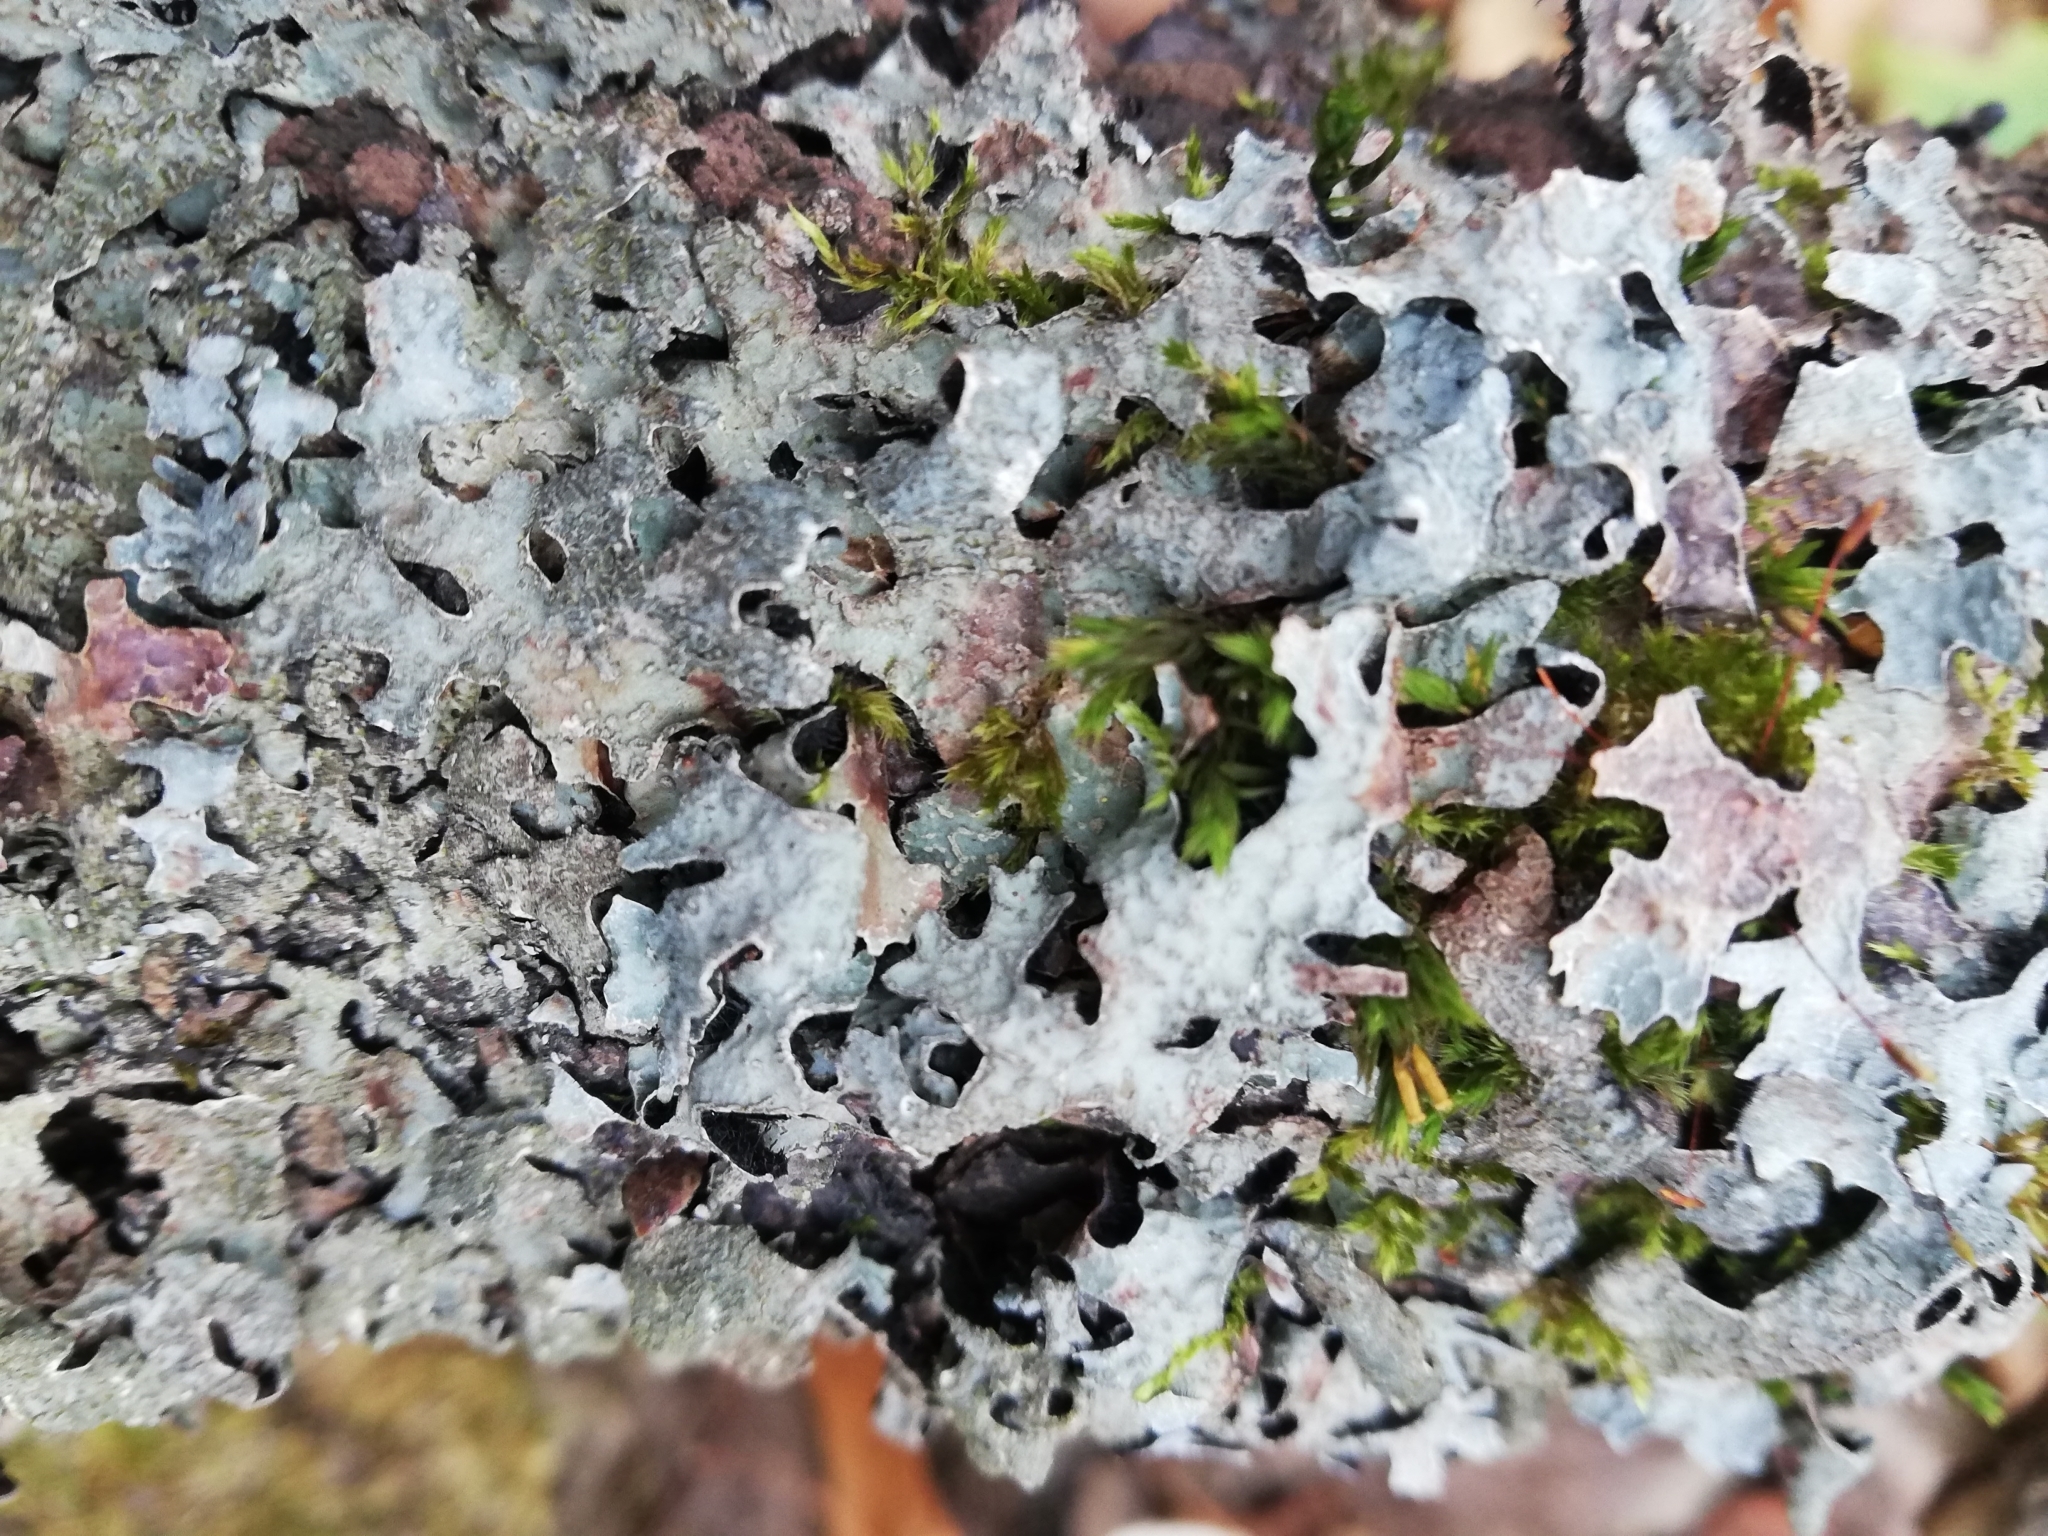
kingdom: Fungi
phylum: Ascomycota
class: Lecanoromycetes
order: Lecanorales
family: Parmeliaceae
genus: Parmelia
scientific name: Parmelia sulcata
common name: Netted shield lichen
